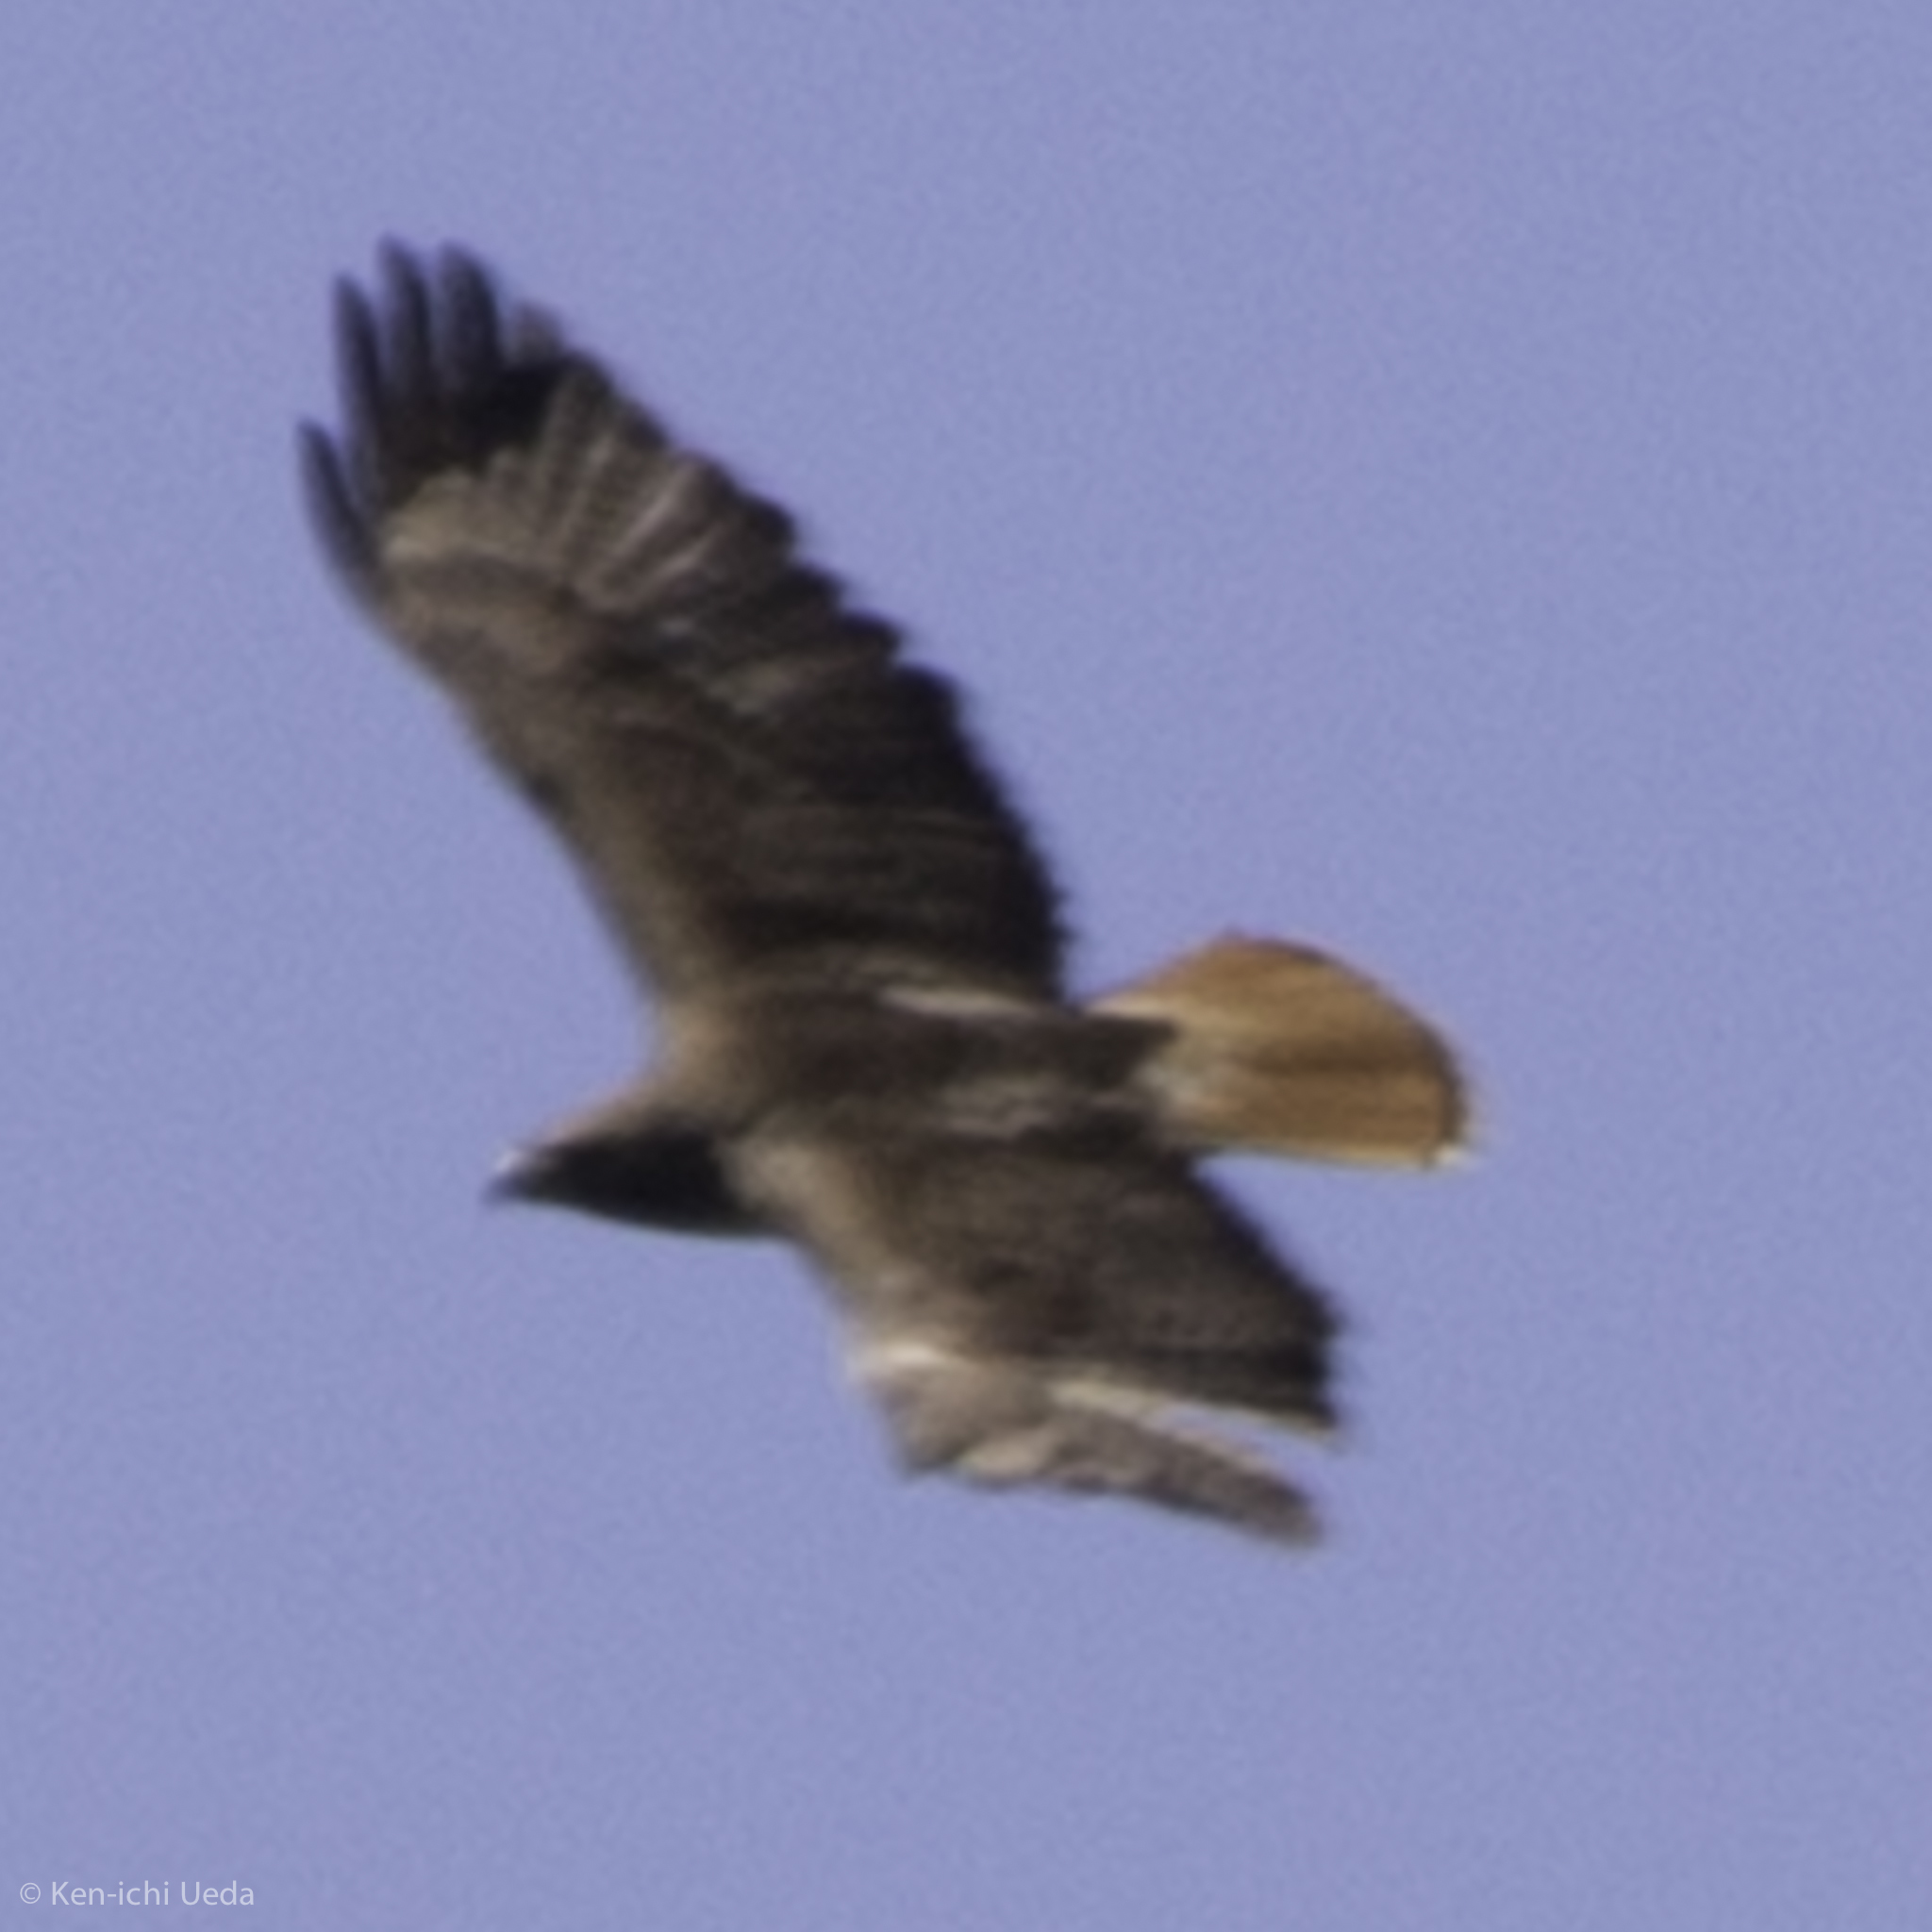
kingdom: Animalia
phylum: Chordata
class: Aves
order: Accipitriformes
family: Accipitridae
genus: Buteo
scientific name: Buteo jamaicensis
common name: Red-tailed hawk
